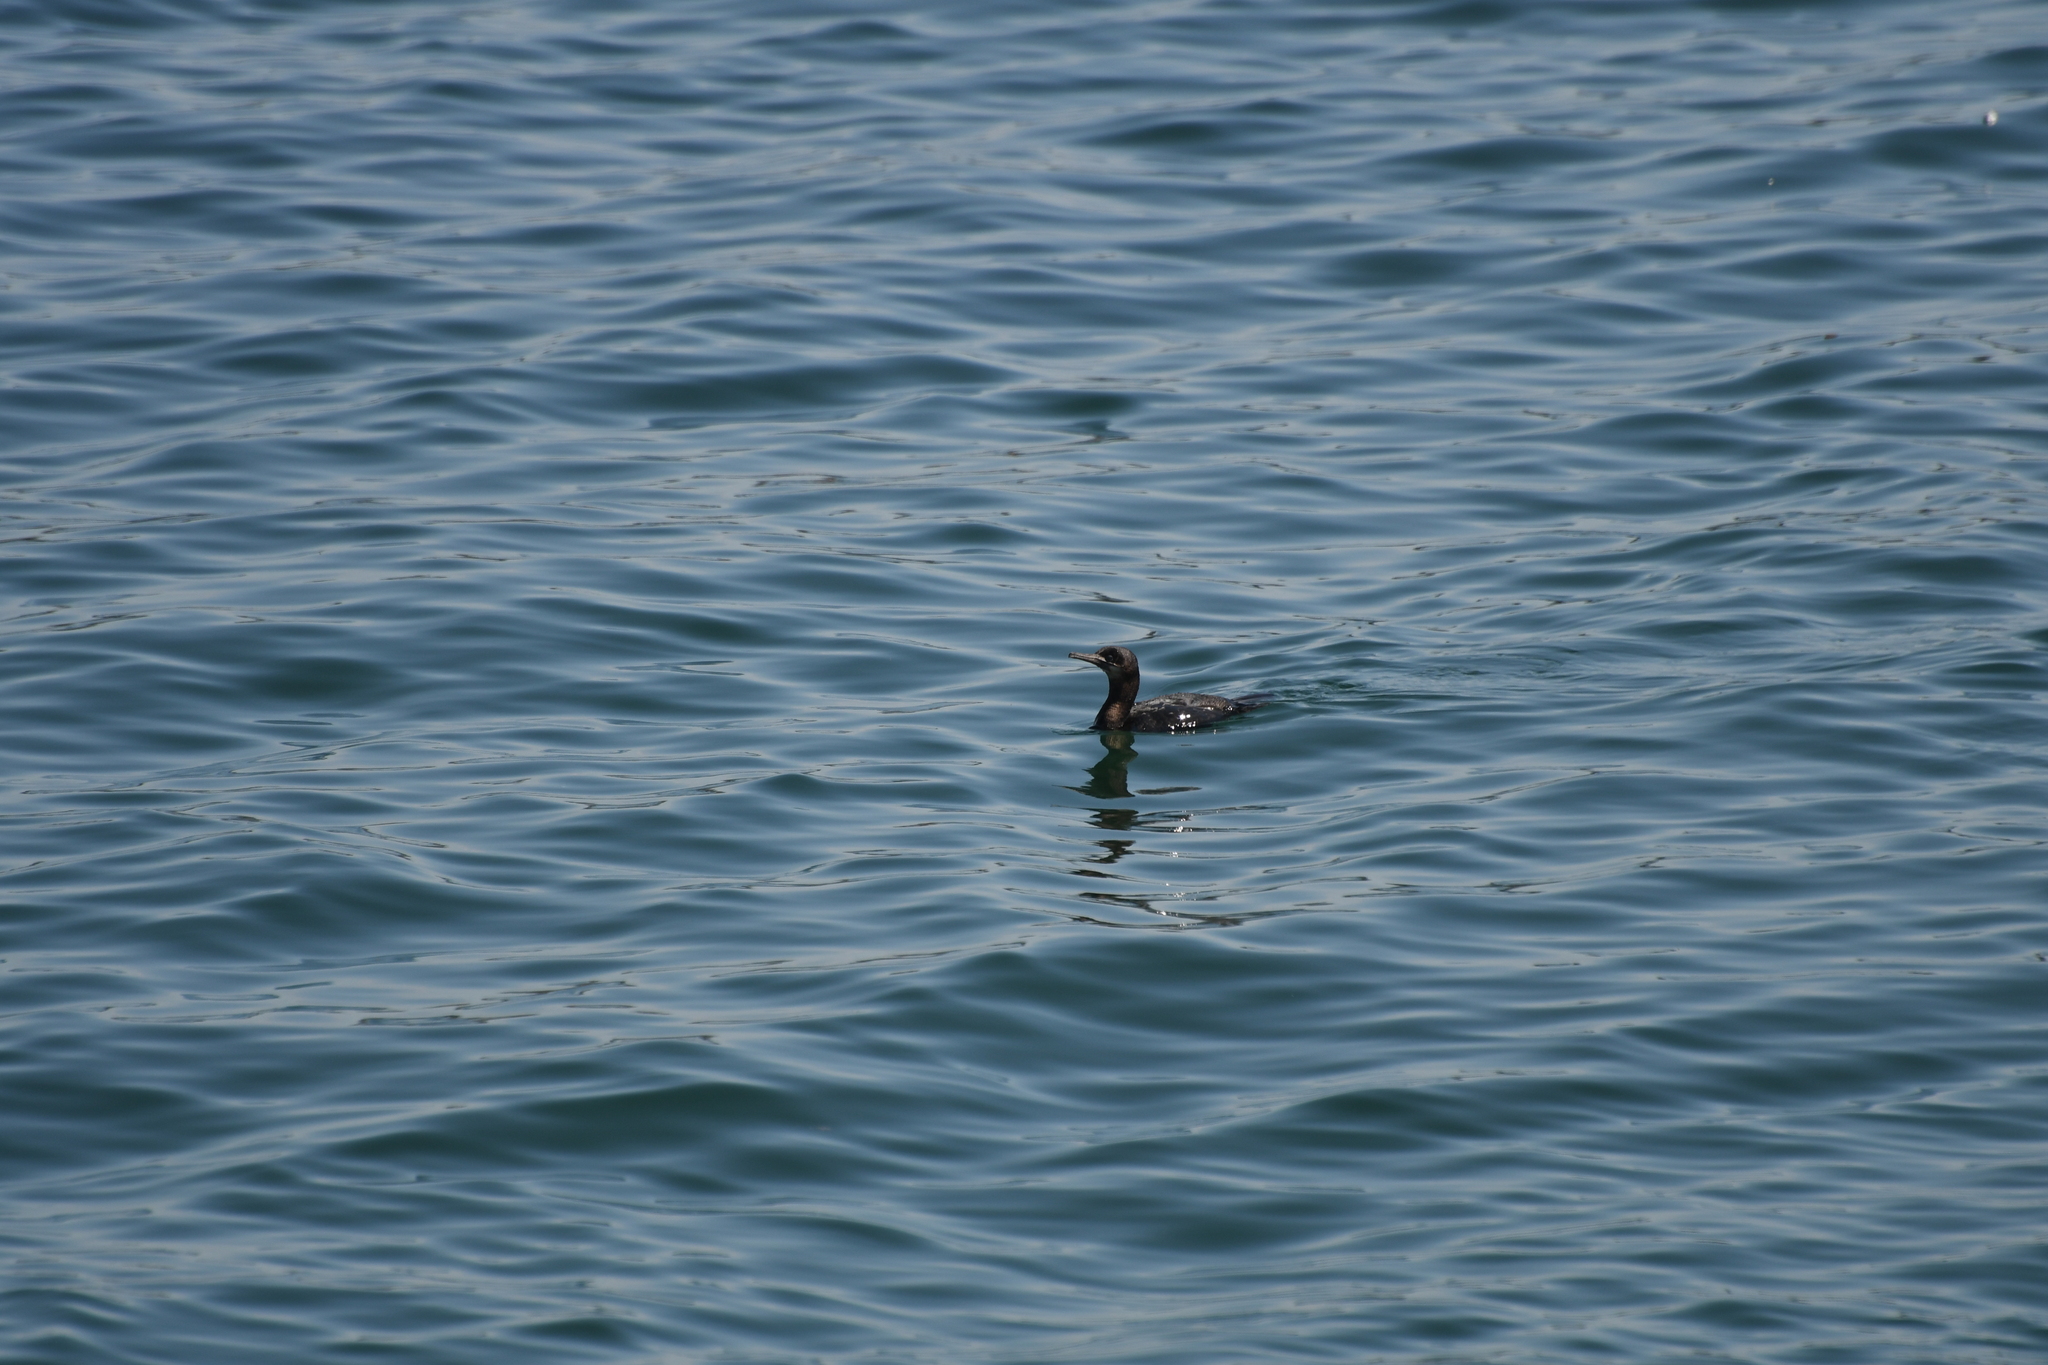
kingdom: Animalia
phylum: Chordata
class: Aves
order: Suliformes
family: Phalacrocoracidae
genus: Urile
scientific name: Urile penicillatus
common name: Brandt's cormorant
